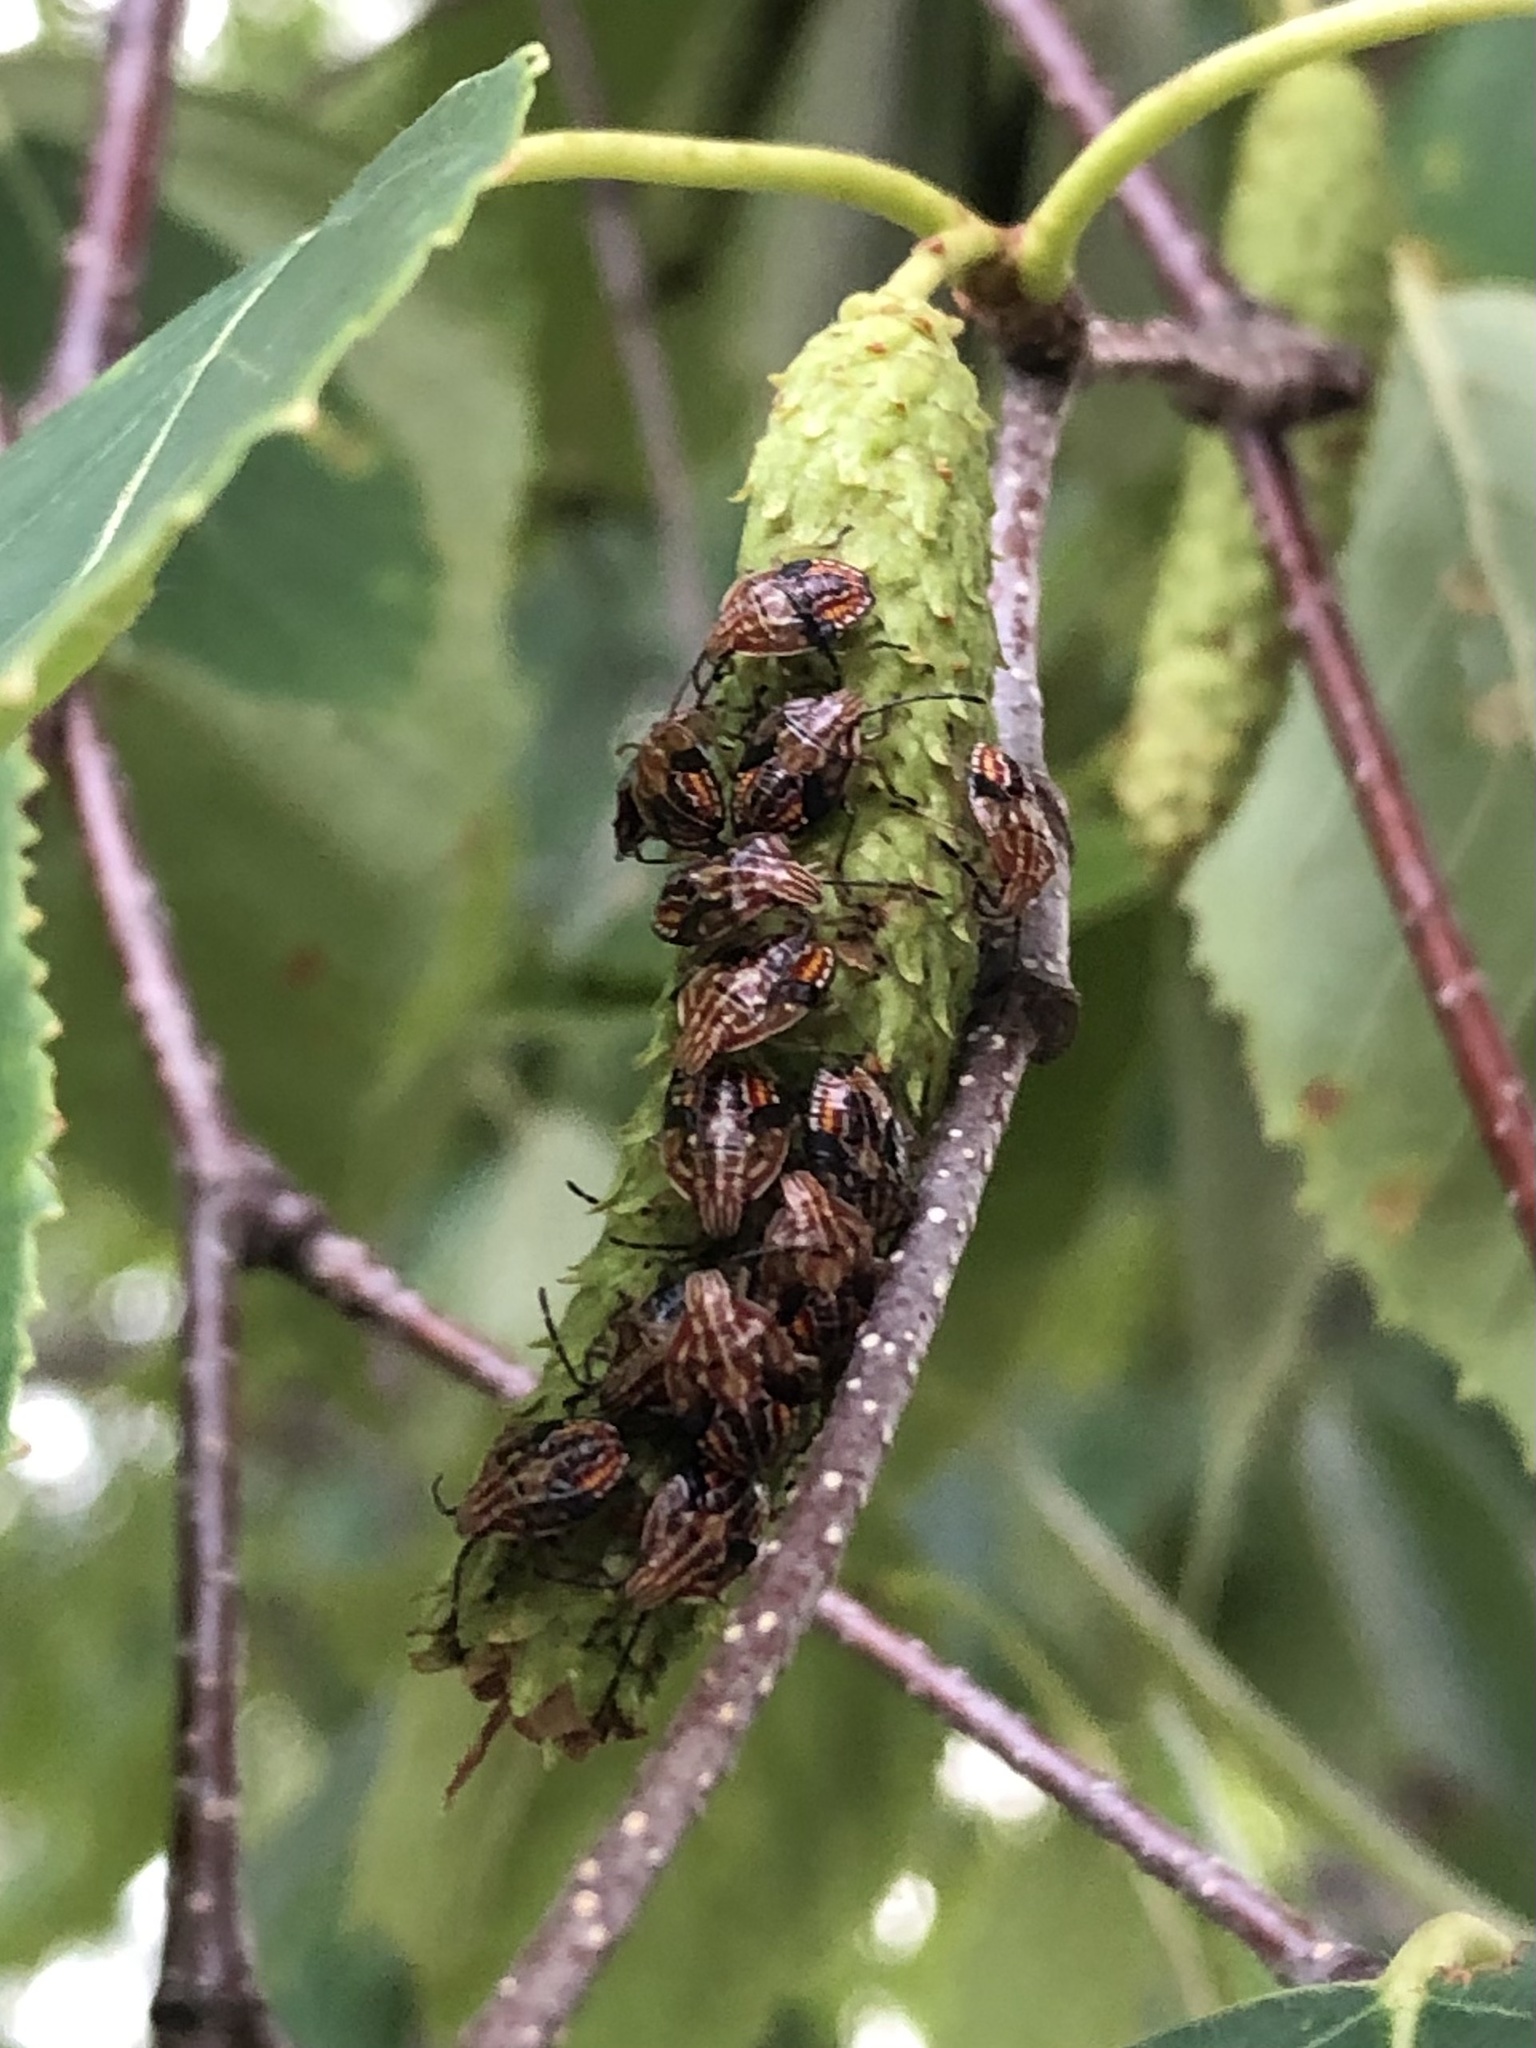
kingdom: Animalia
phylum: Arthropoda
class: Insecta
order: Hemiptera
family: Acanthosomatidae
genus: Elasmucha
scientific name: Elasmucha lateralis
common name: Shield bug
